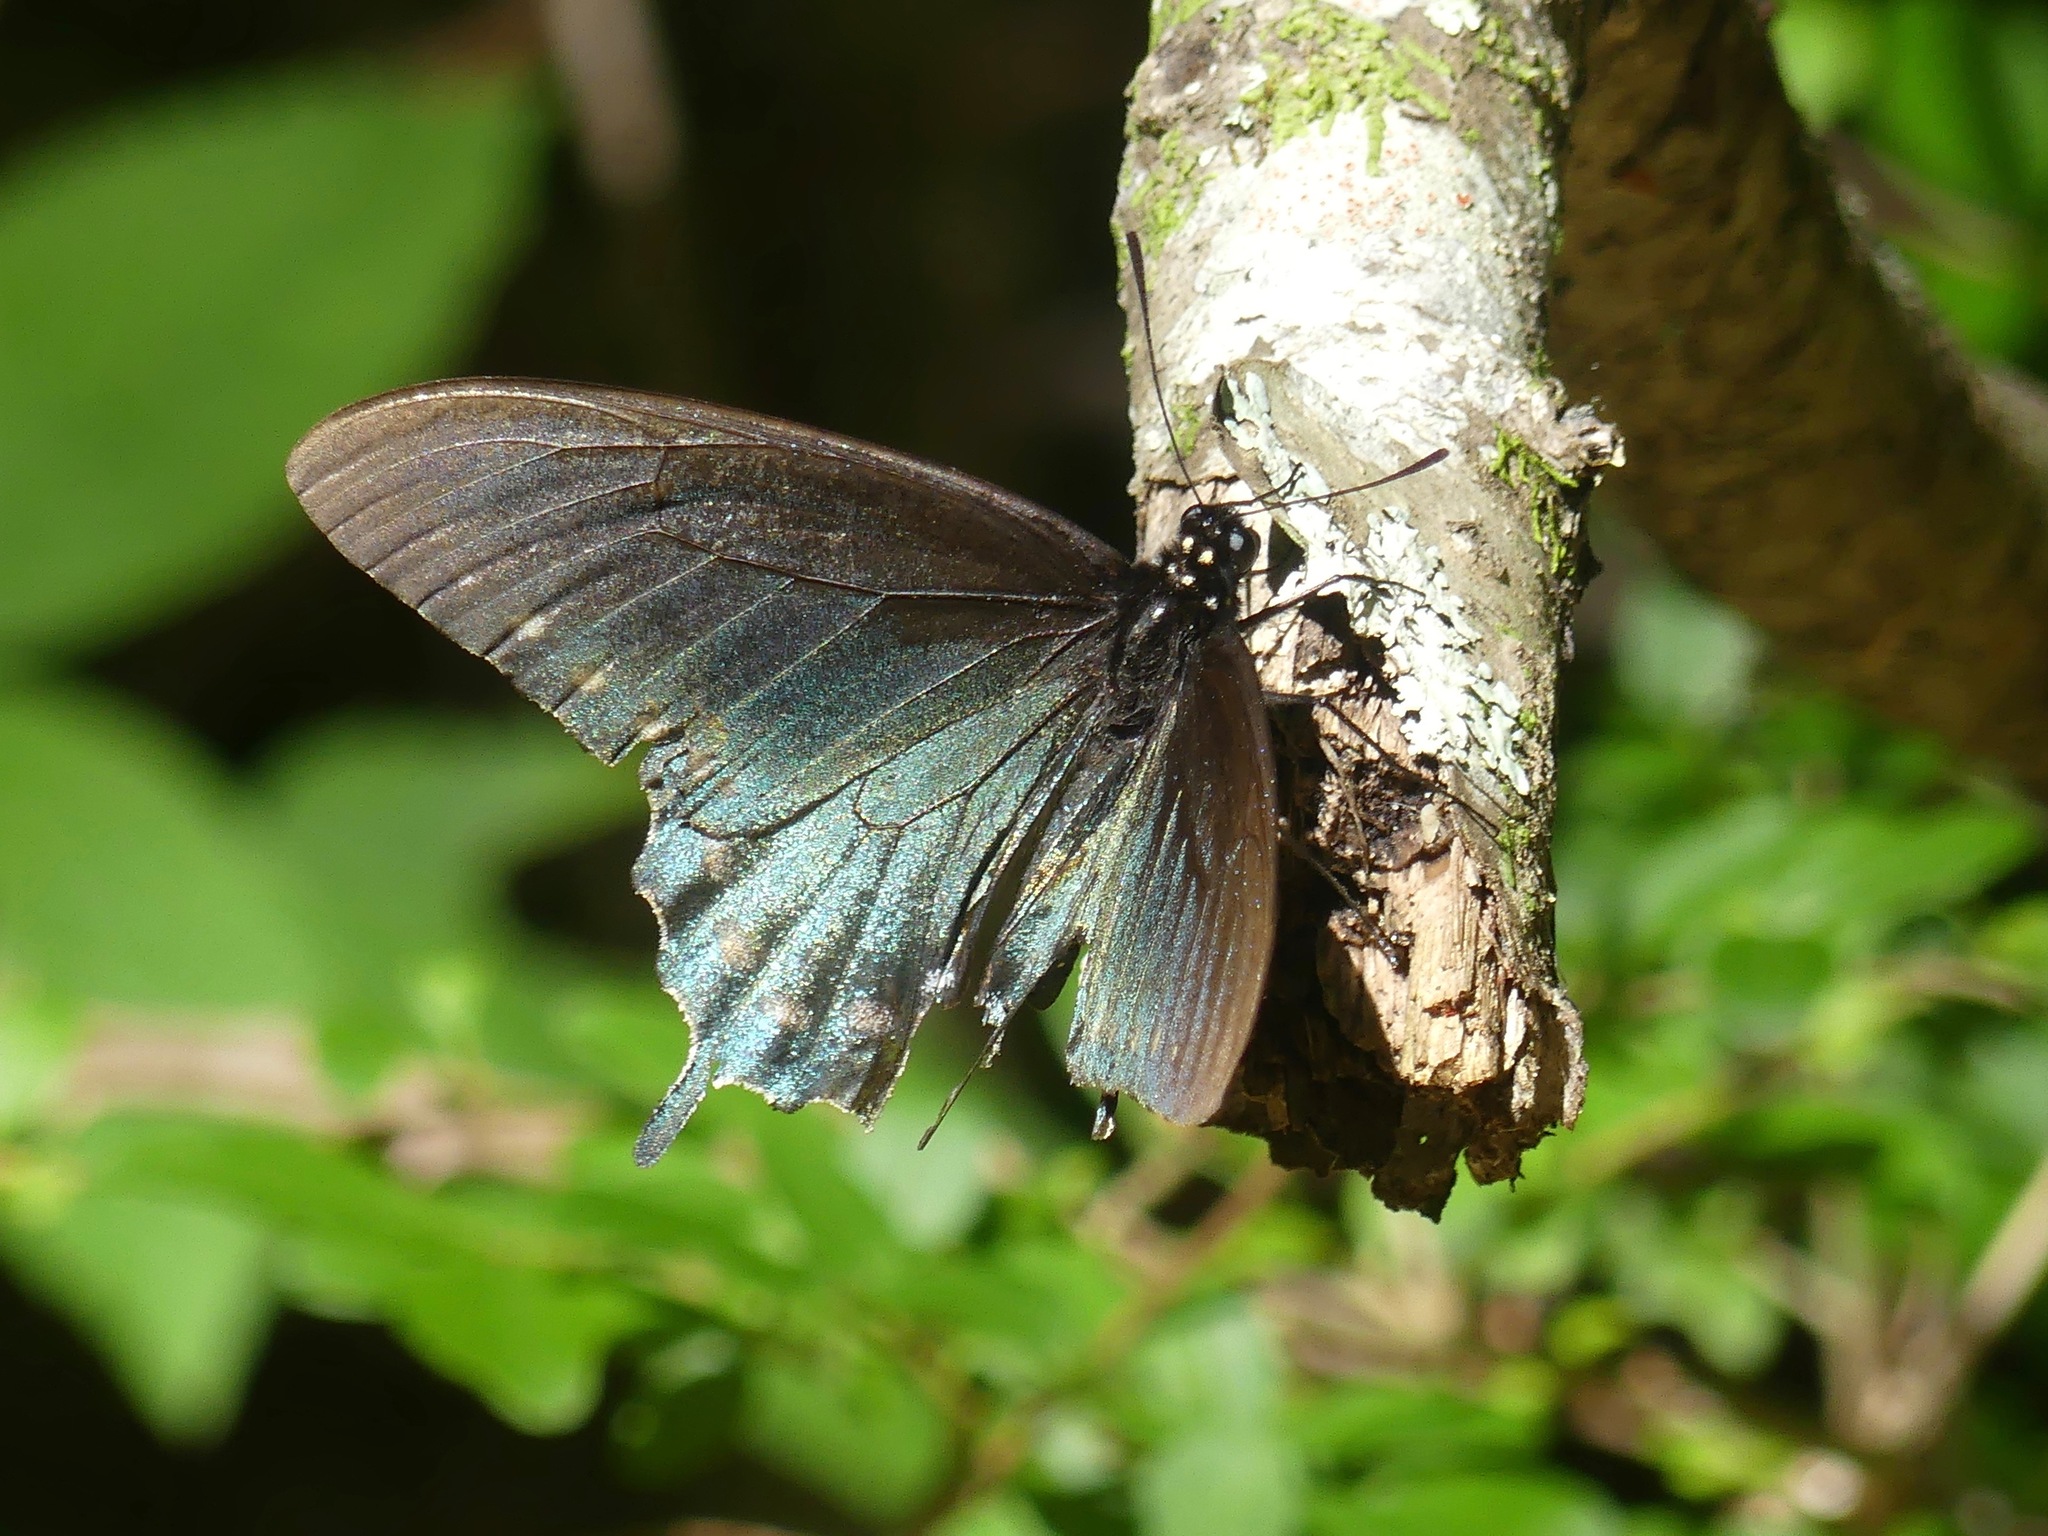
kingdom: Animalia
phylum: Arthropoda
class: Insecta
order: Lepidoptera
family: Papilionidae
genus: Battus
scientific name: Battus philenor
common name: Pipevine swallowtail
